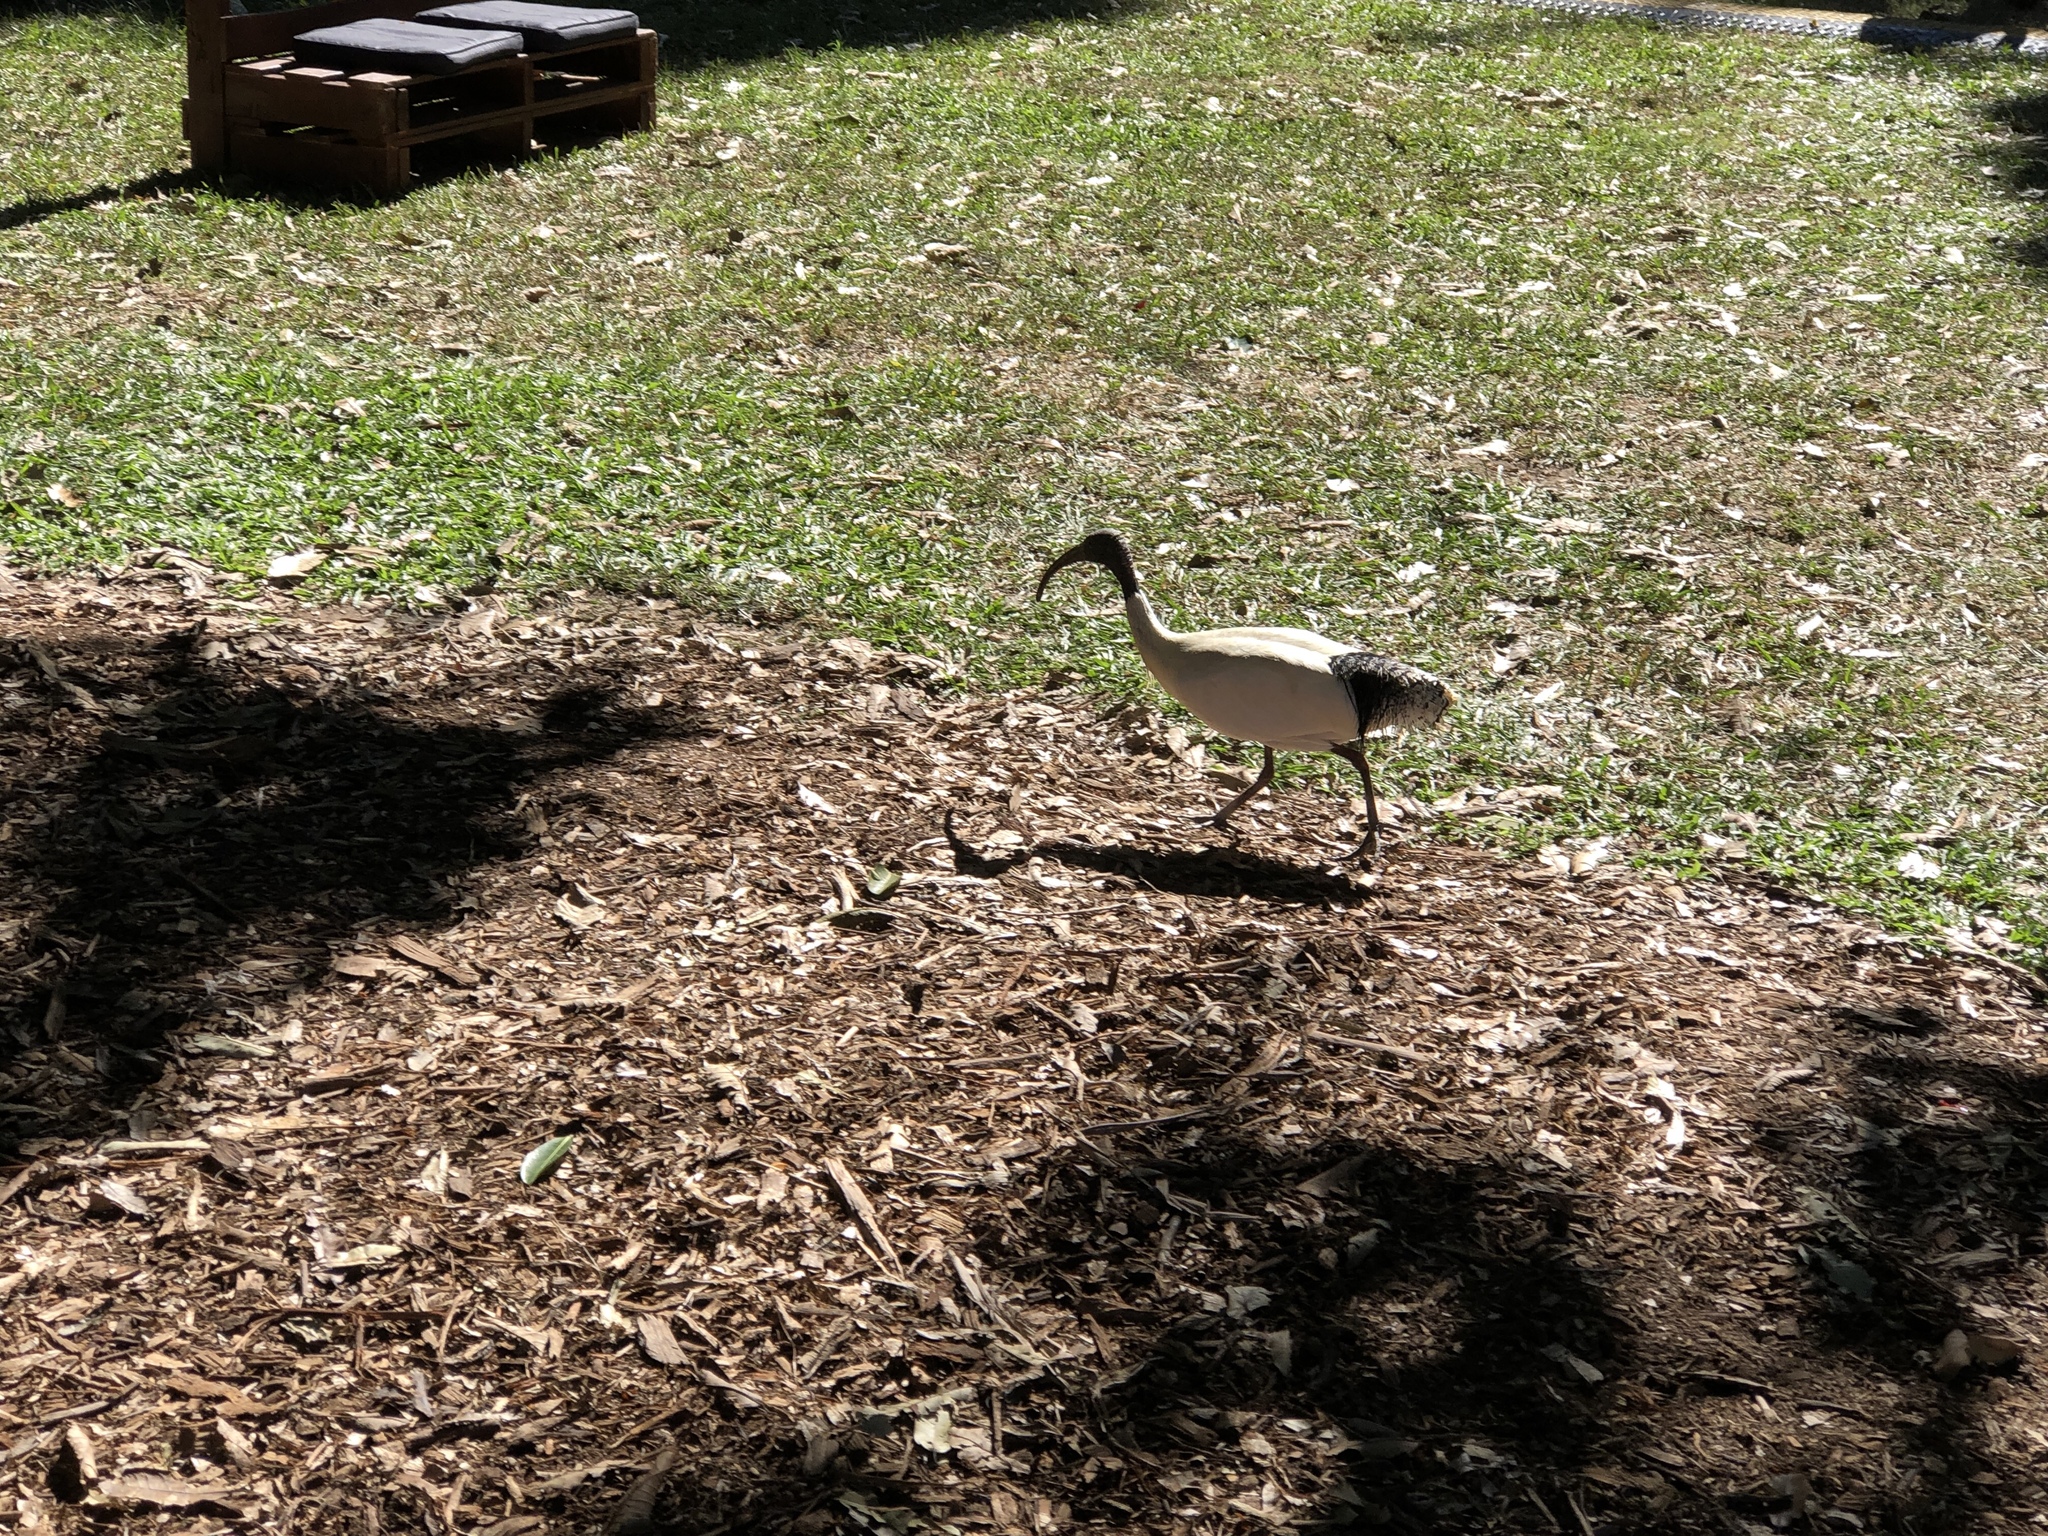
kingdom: Animalia
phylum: Chordata
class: Aves
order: Pelecaniformes
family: Threskiornithidae
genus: Threskiornis
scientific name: Threskiornis molucca
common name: Australian white ibis
